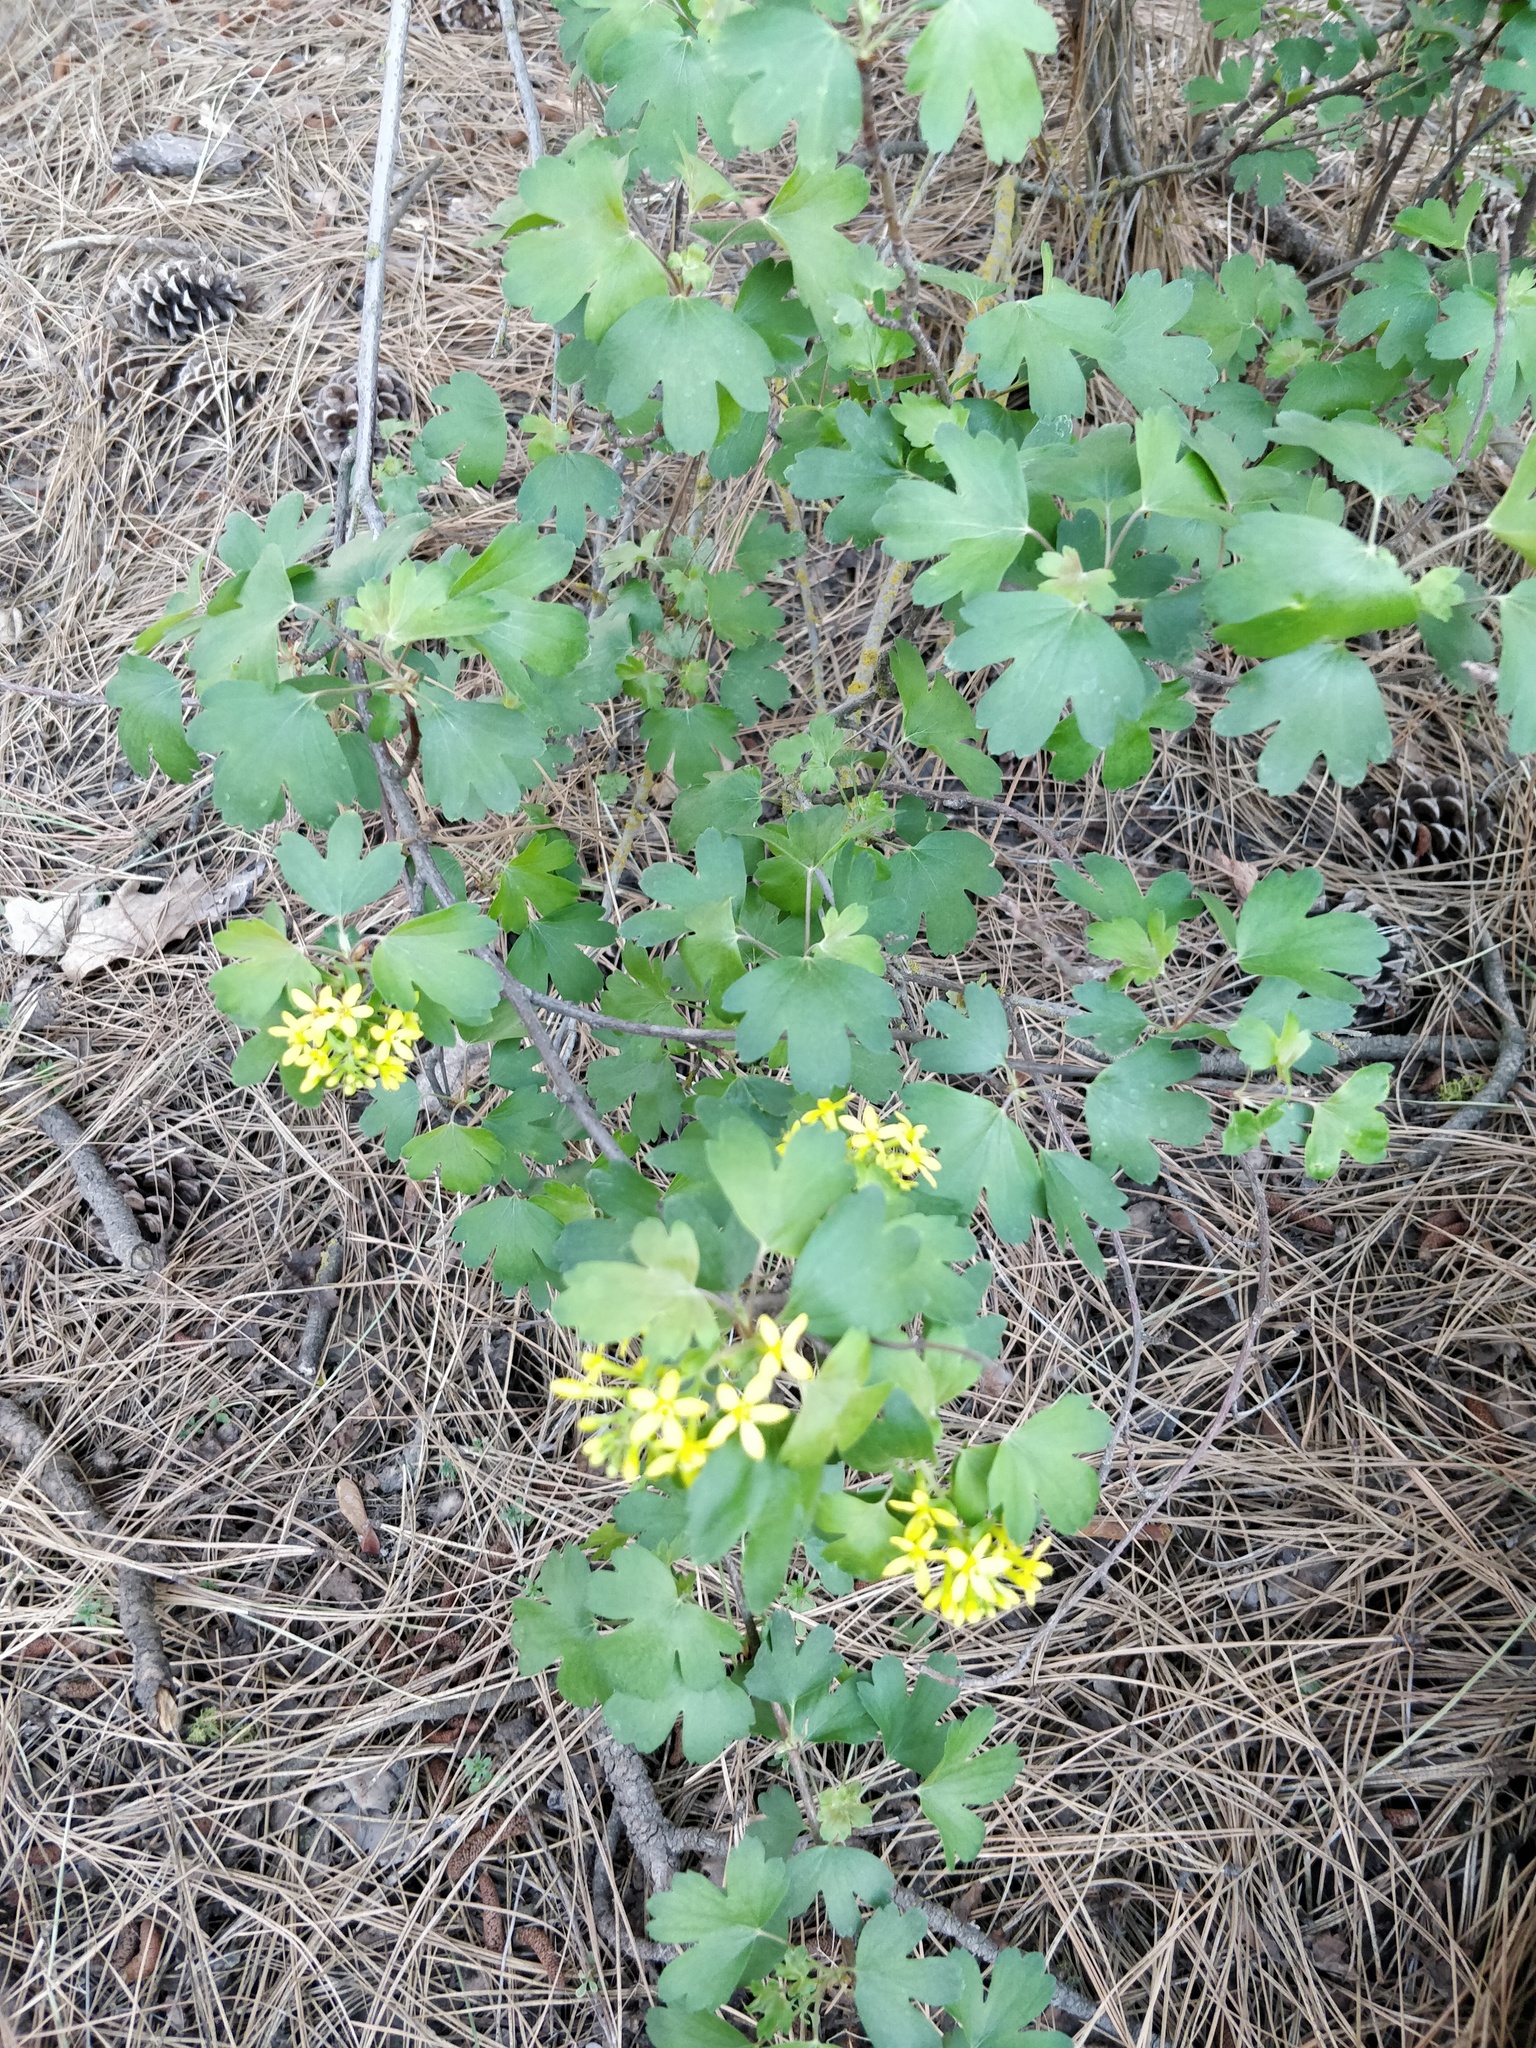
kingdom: Plantae
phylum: Tracheophyta
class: Magnoliopsida
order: Saxifragales
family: Grossulariaceae
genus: Ribes
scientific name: Ribes aureum
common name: Golden currant
